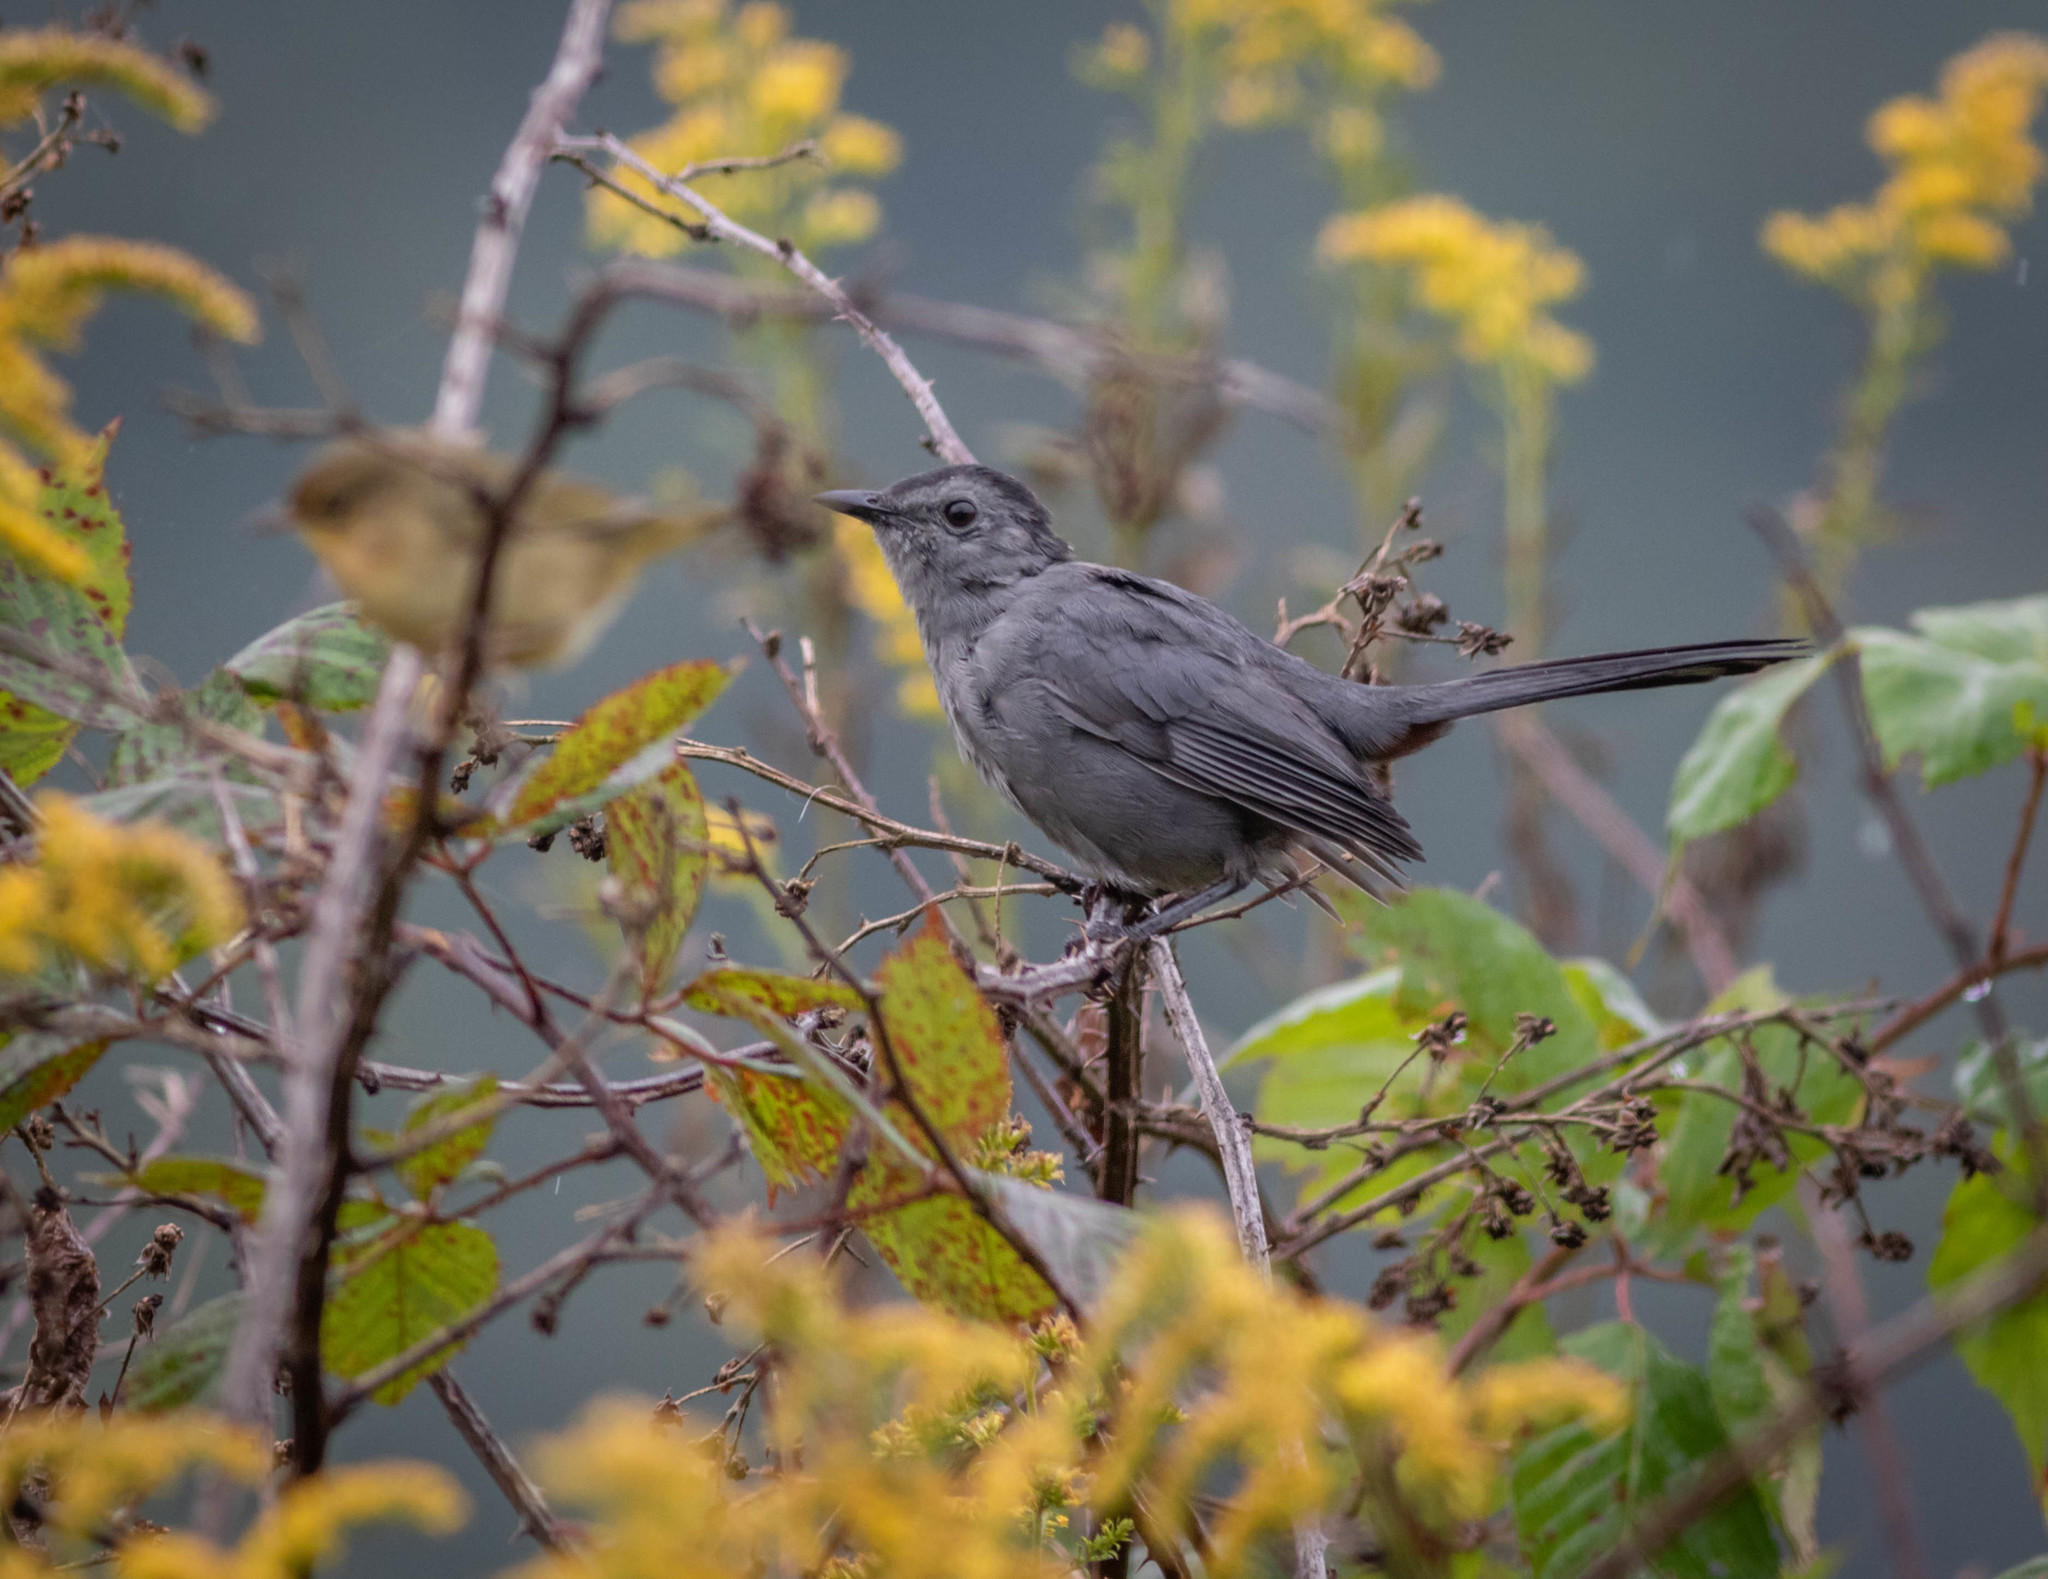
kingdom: Animalia
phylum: Chordata
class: Aves
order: Passeriformes
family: Mimidae
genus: Dumetella
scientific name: Dumetella carolinensis
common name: Gray catbird
